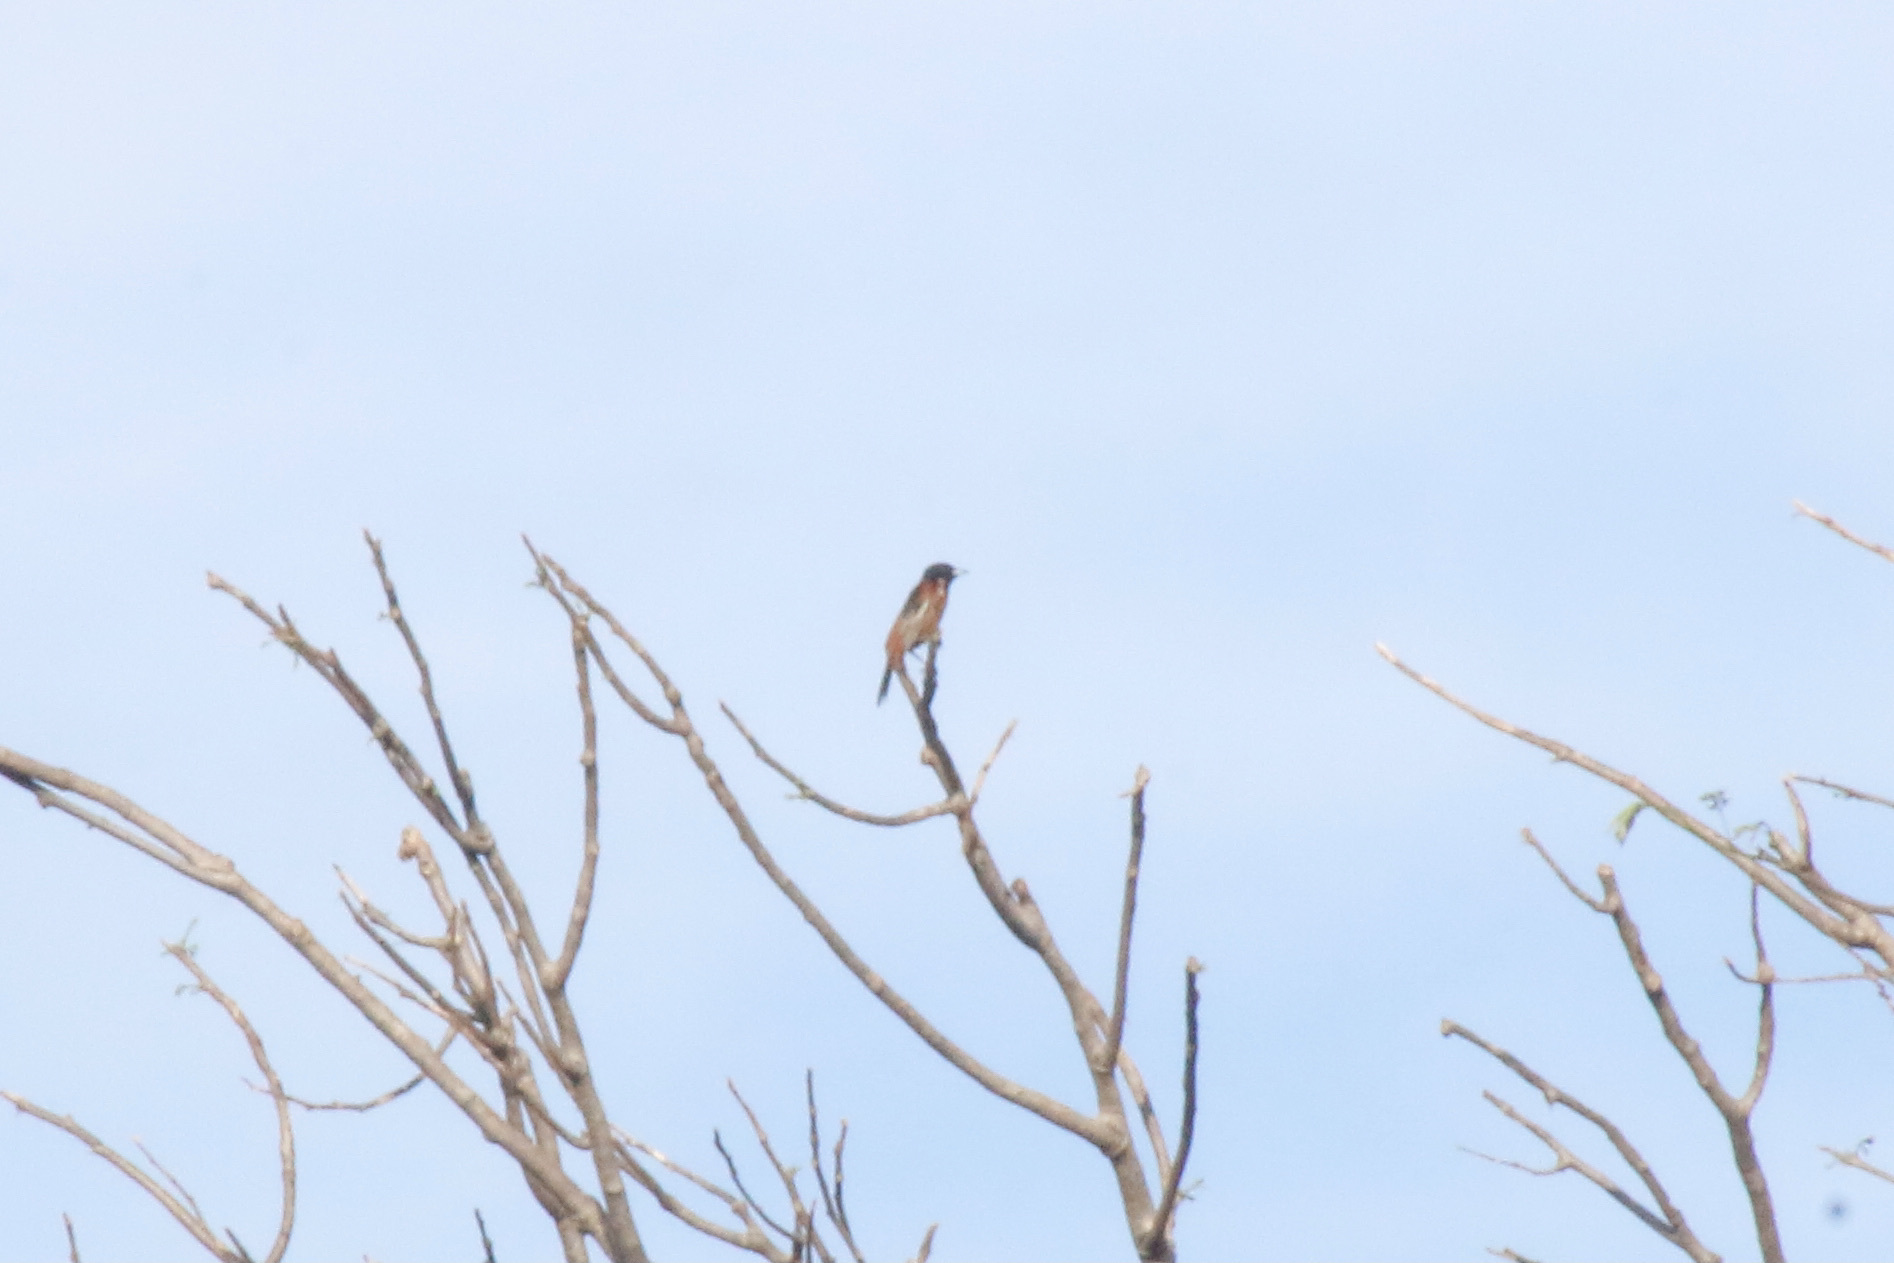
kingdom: Animalia
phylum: Chordata
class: Aves
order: Passeriformes
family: Icteridae
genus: Icterus
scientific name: Icterus spurius
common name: Orchard oriole
